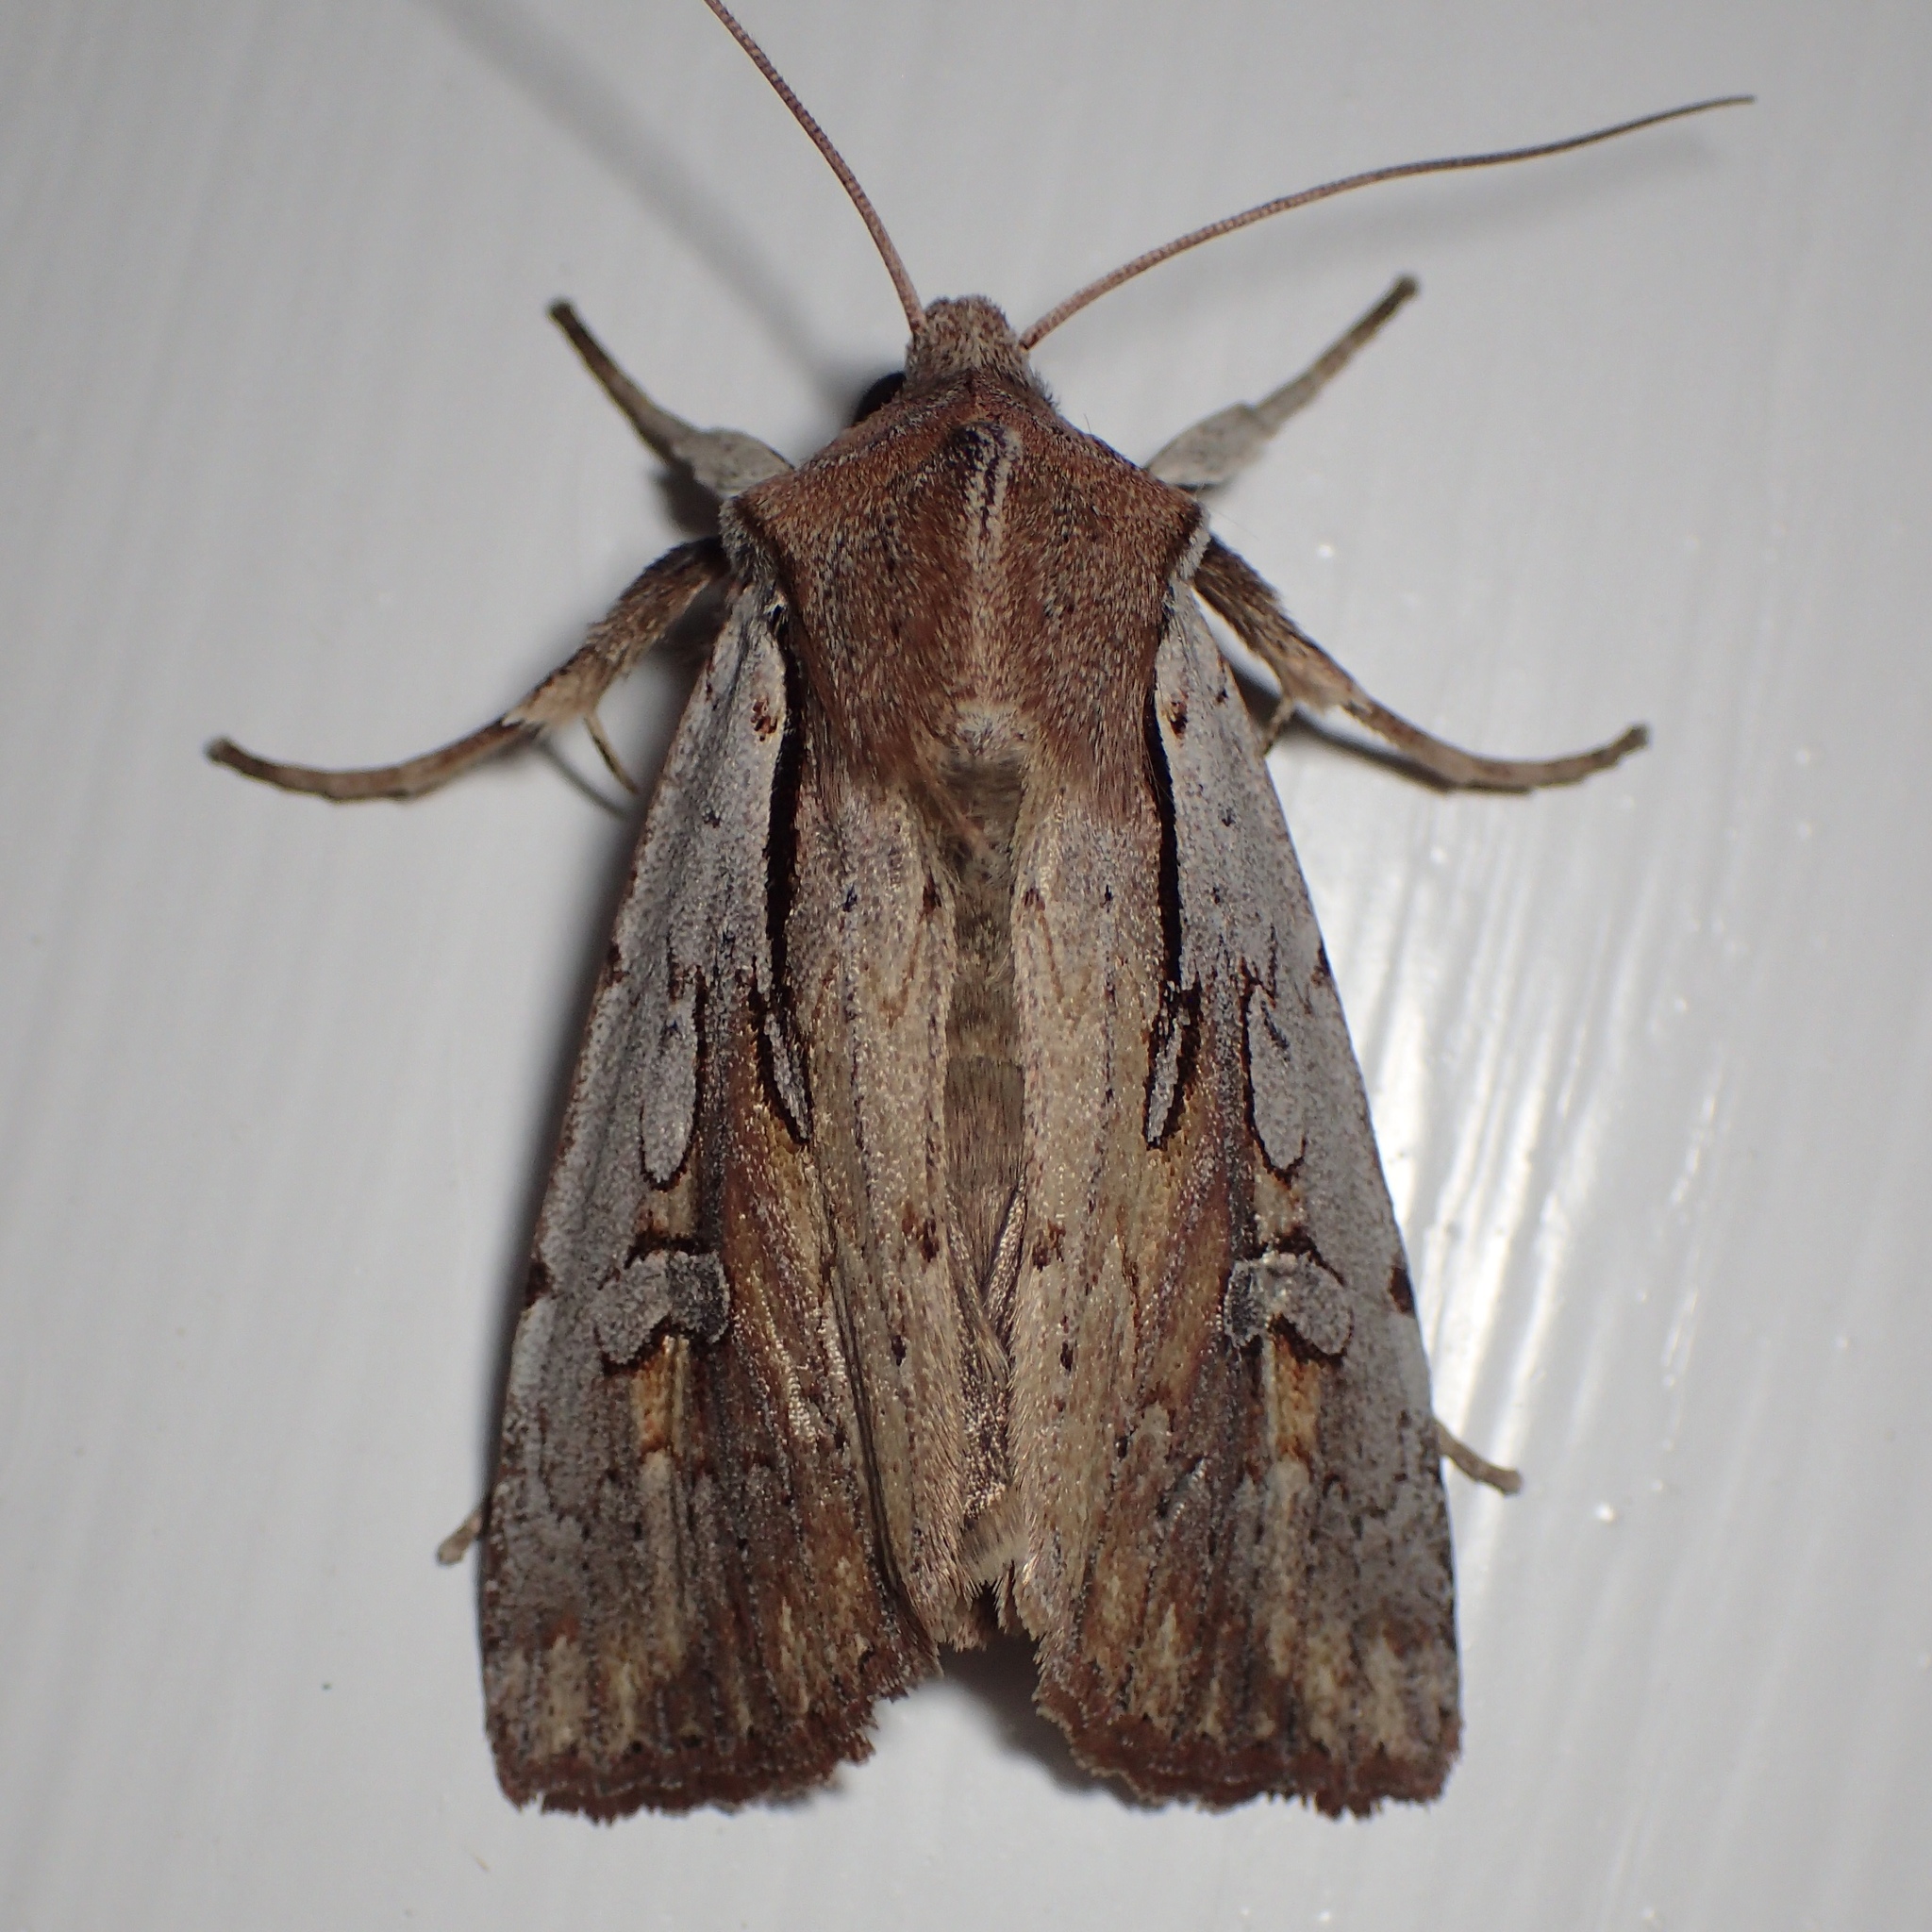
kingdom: Animalia
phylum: Arthropoda
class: Insecta
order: Lepidoptera
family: Noctuidae
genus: Ichneutica
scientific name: Ichneutica atristriga
